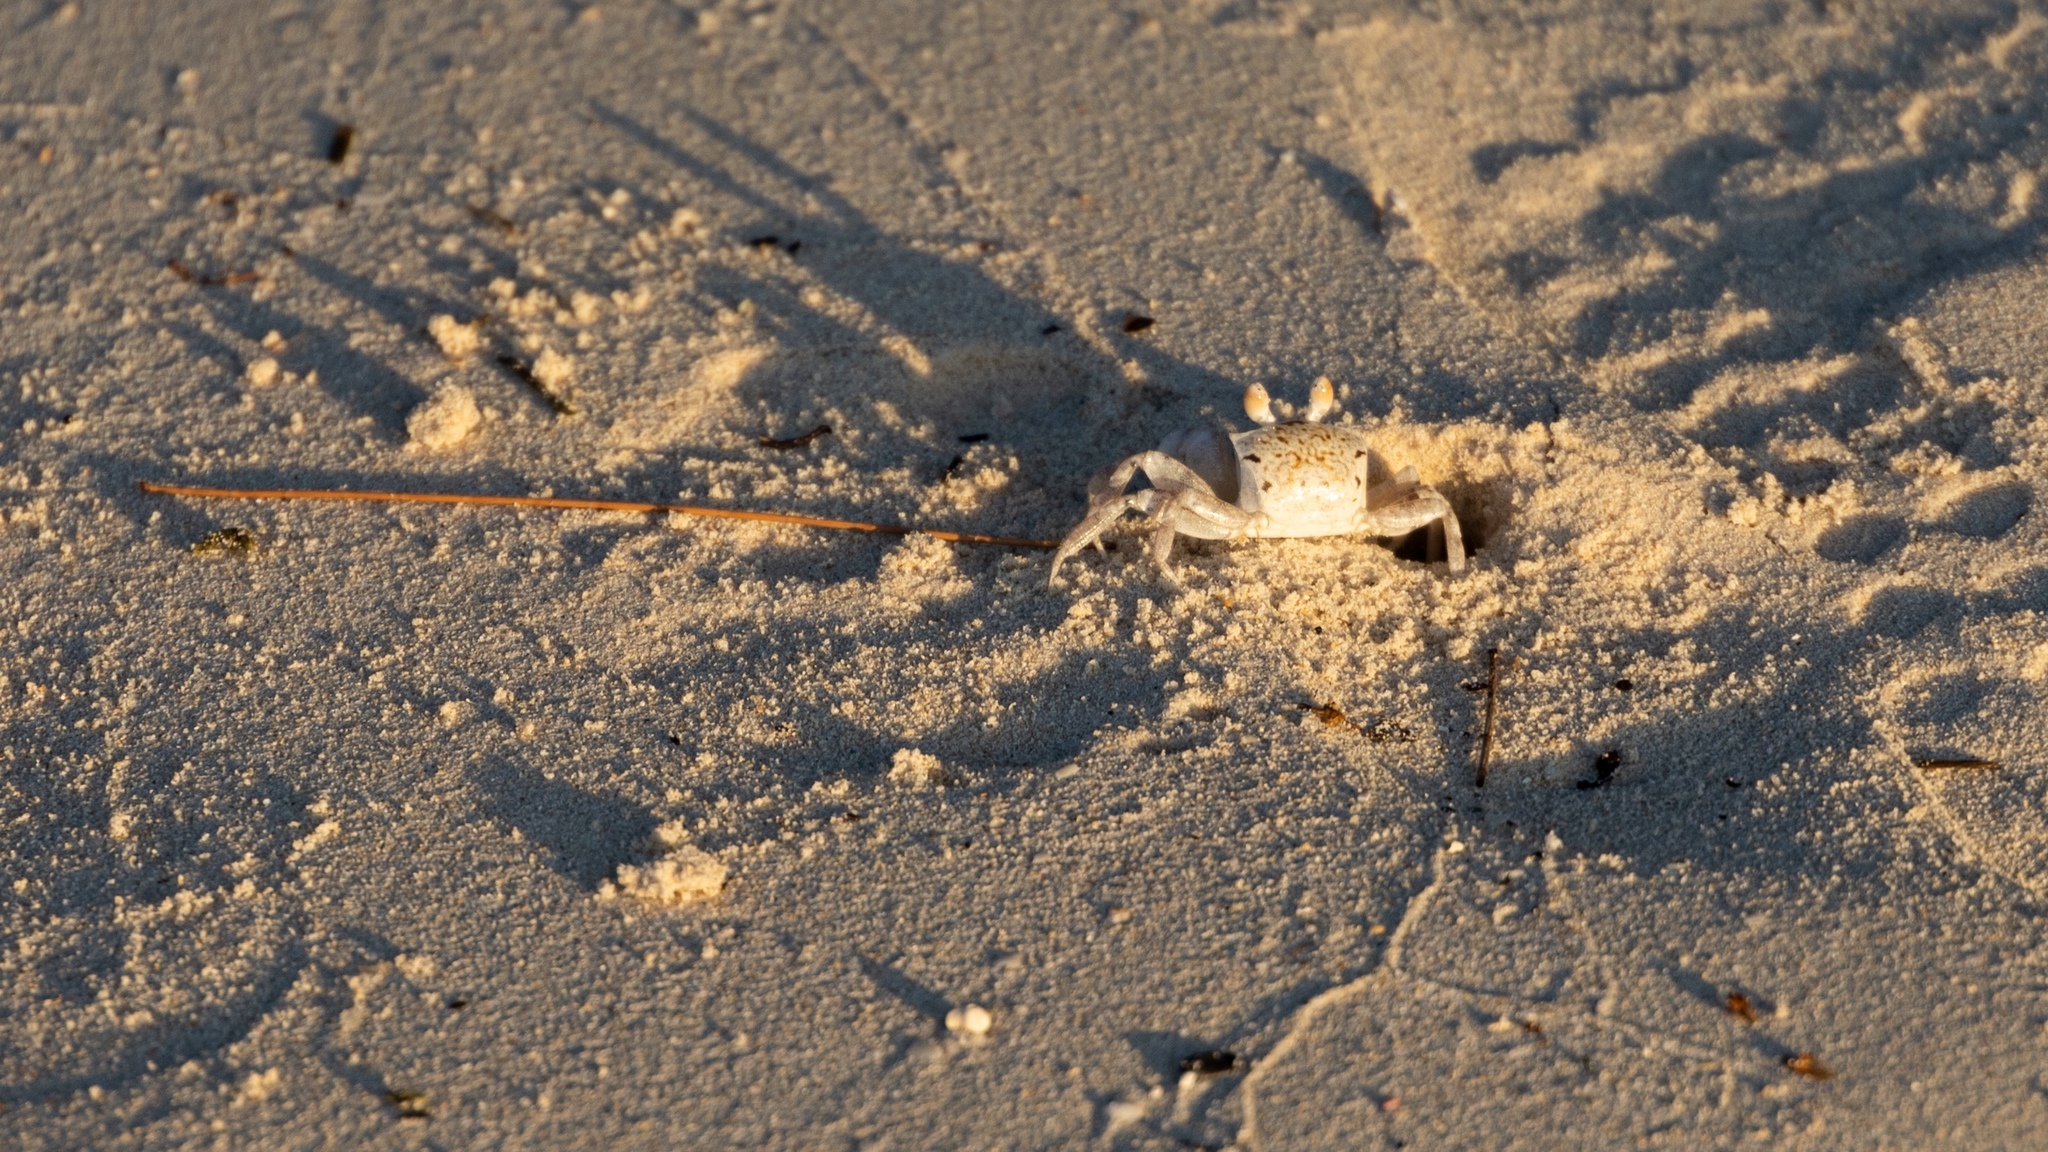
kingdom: Animalia
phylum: Arthropoda
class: Malacostraca
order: Decapoda
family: Ocypodidae
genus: Ocypode
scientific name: Ocypode pallidula
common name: Pallid ghost crab
